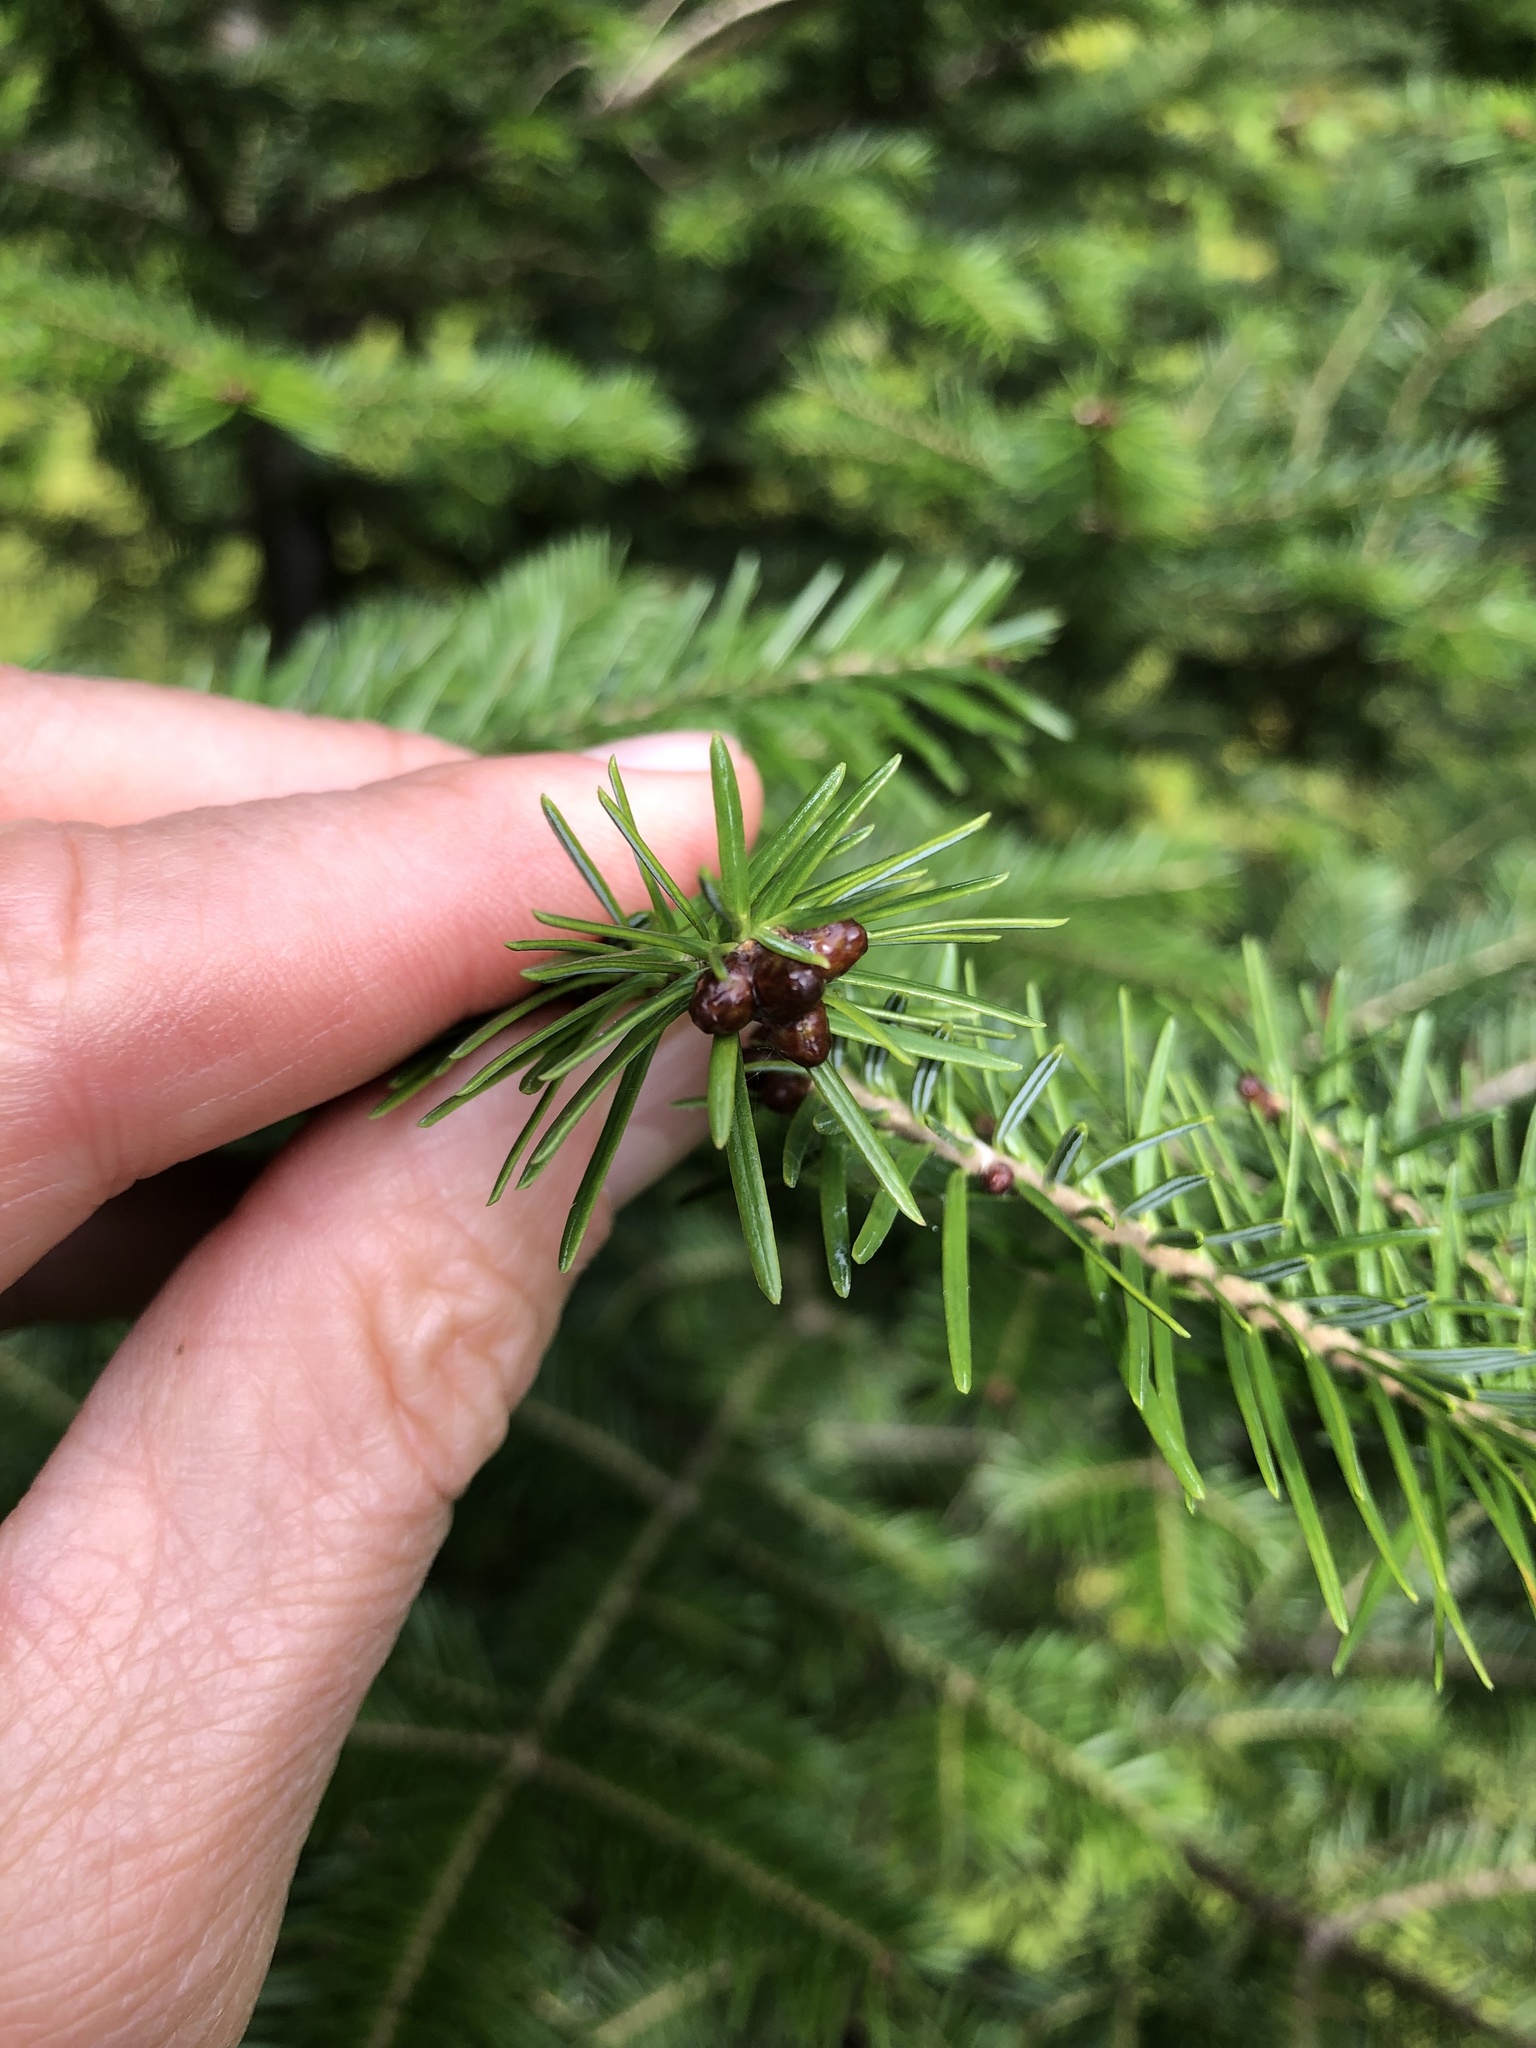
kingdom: Plantae
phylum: Tracheophyta
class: Pinopsida
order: Pinales
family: Pinaceae
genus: Abies
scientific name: Abies balsamea
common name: Balsam fir
